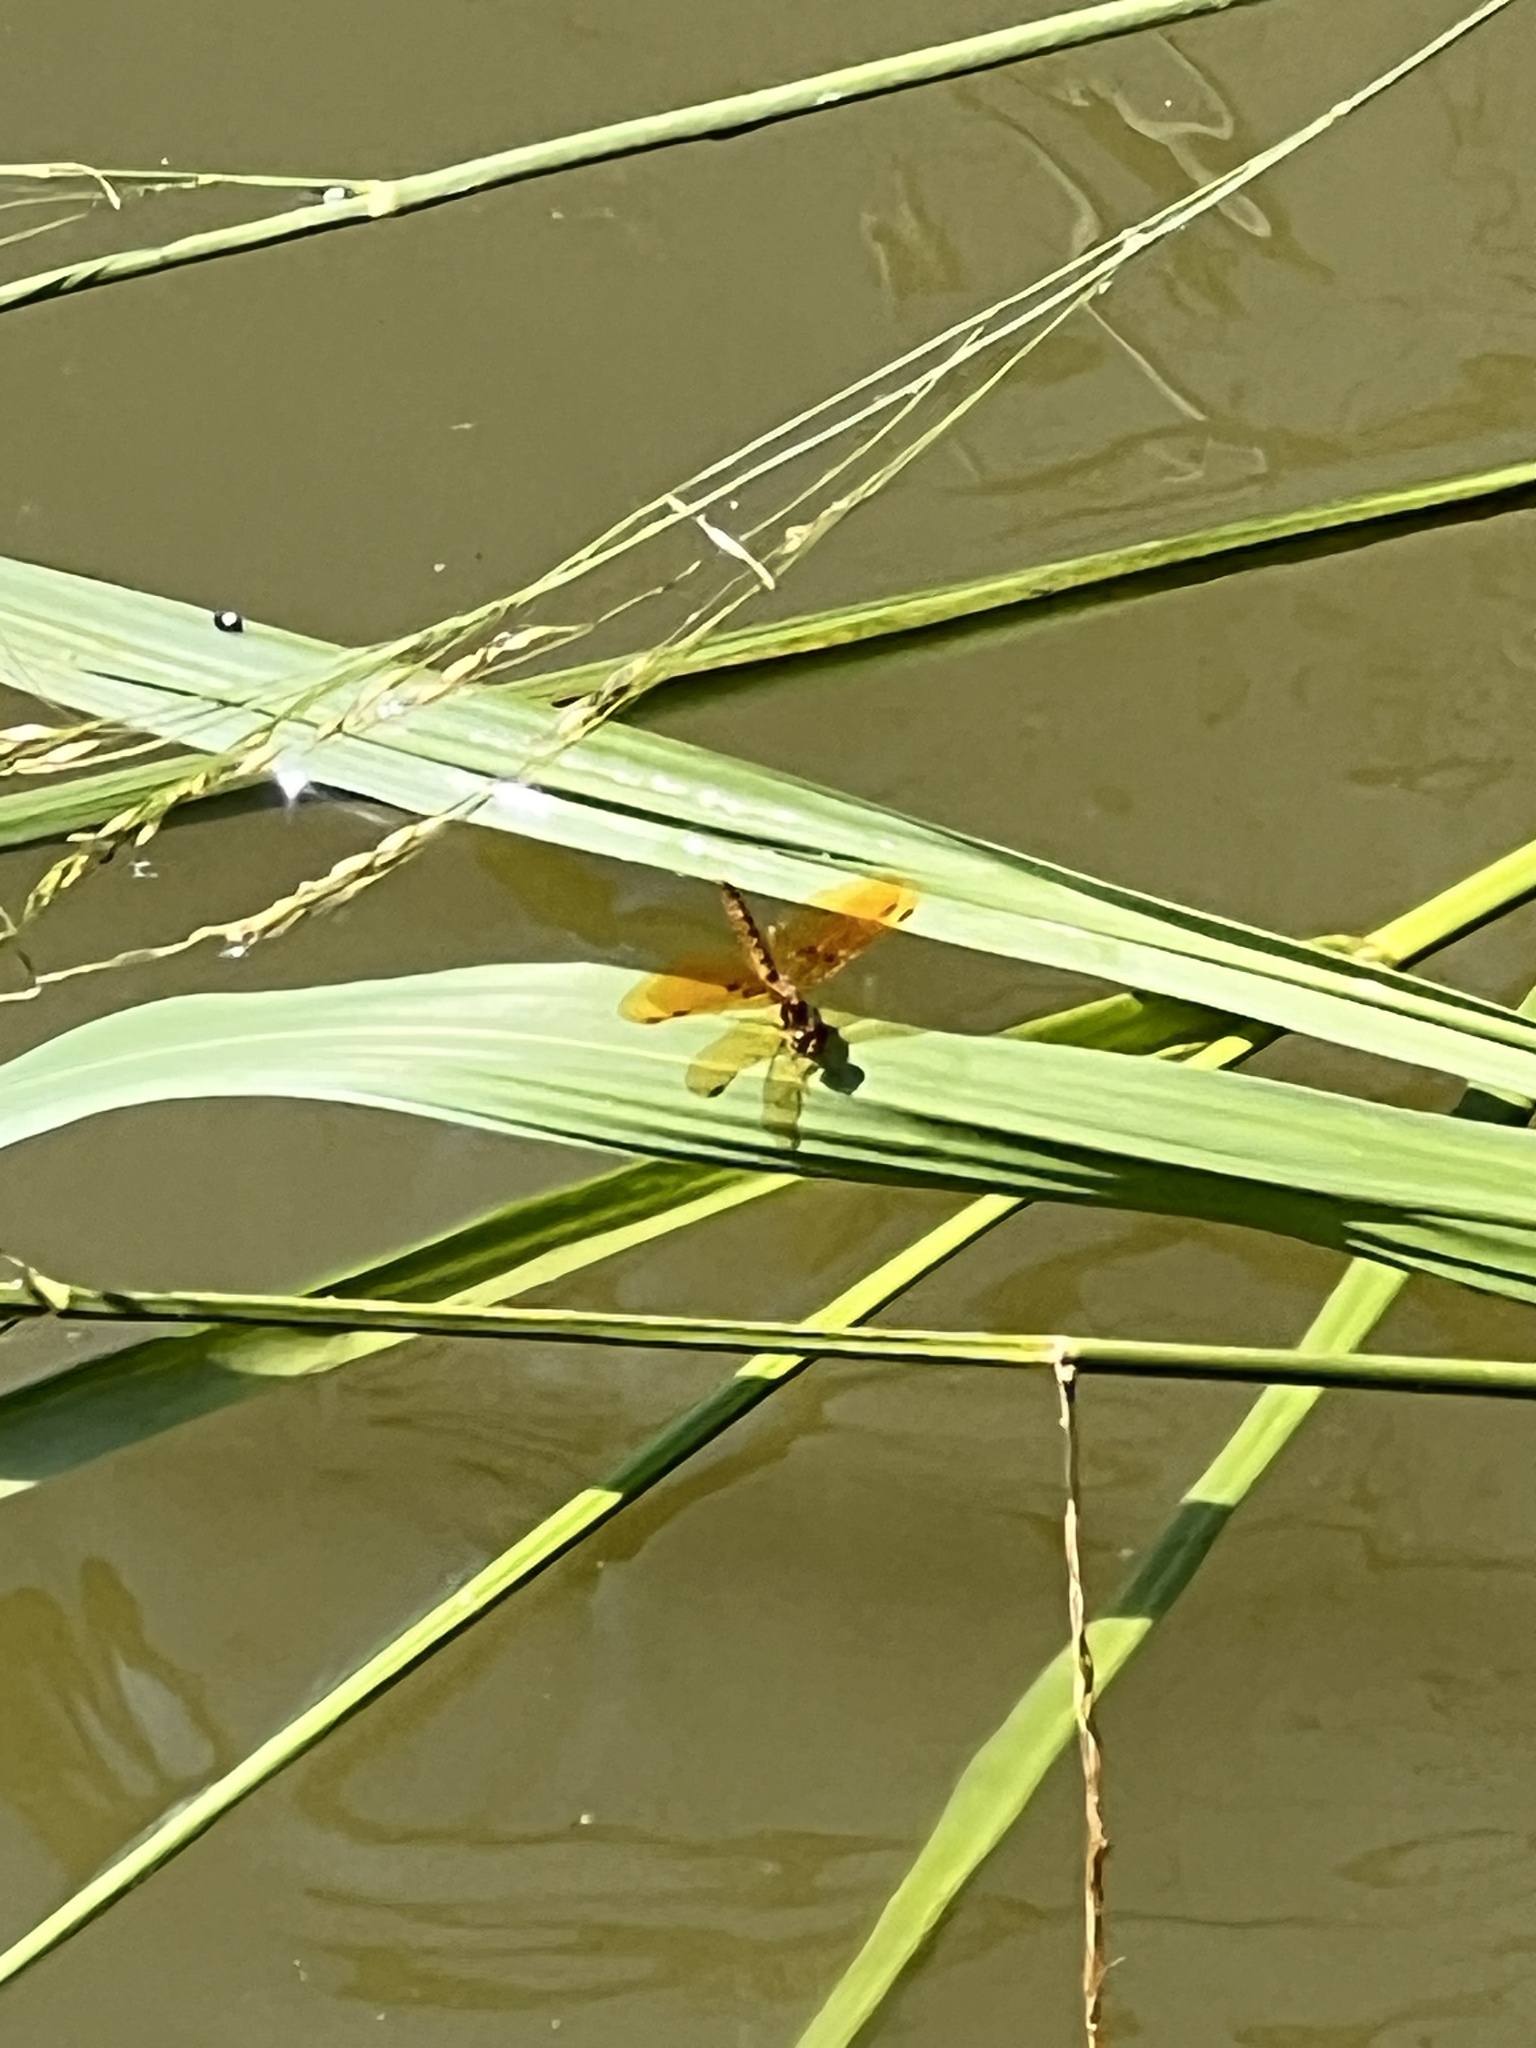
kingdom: Animalia
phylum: Arthropoda
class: Insecta
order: Odonata
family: Libellulidae
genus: Perithemis
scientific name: Perithemis tenera
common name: Eastern amberwing
